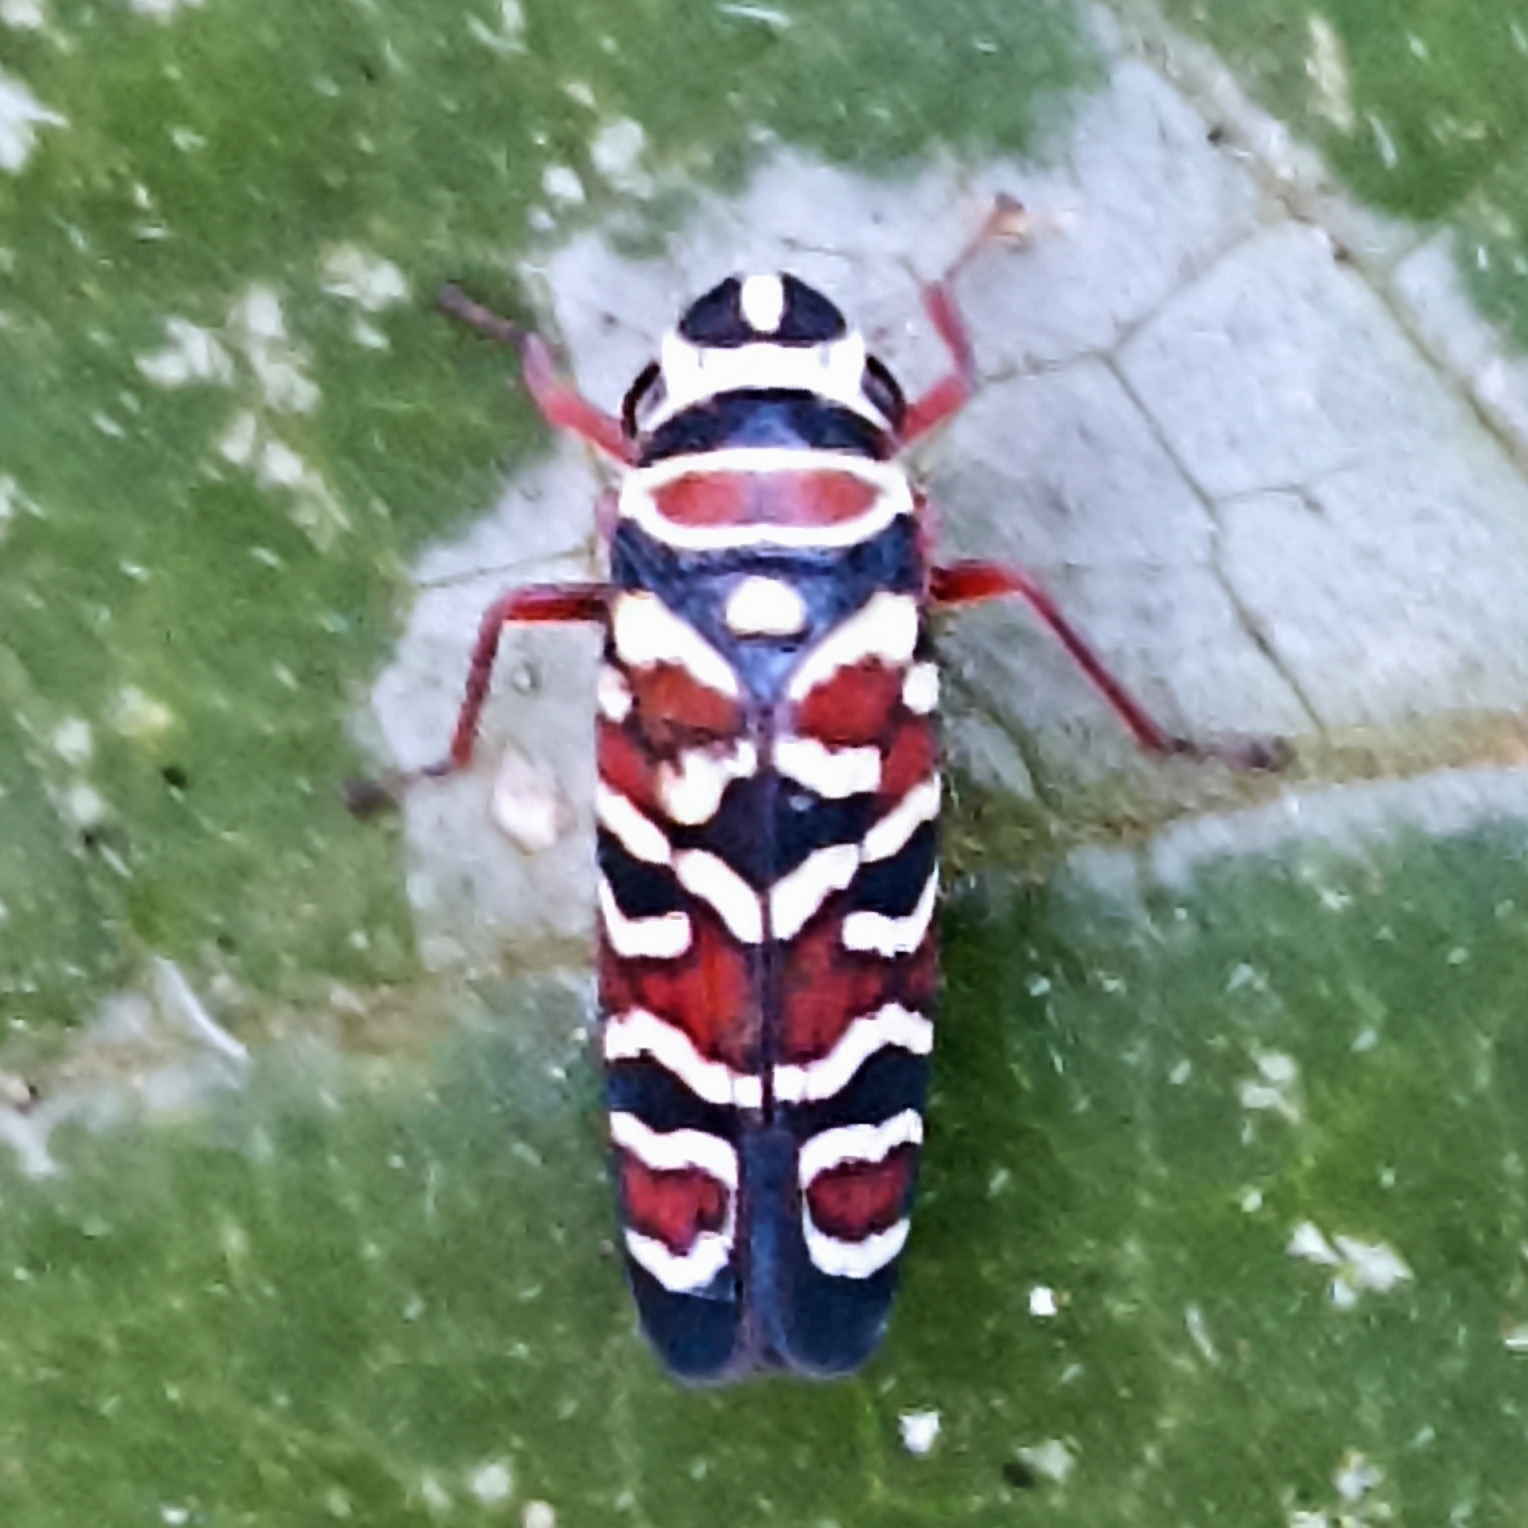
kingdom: Animalia
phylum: Arthropoda
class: Insecta
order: Hemiptera
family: Cicadellidae
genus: Agrosoma
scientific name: Agrosoma placetis
